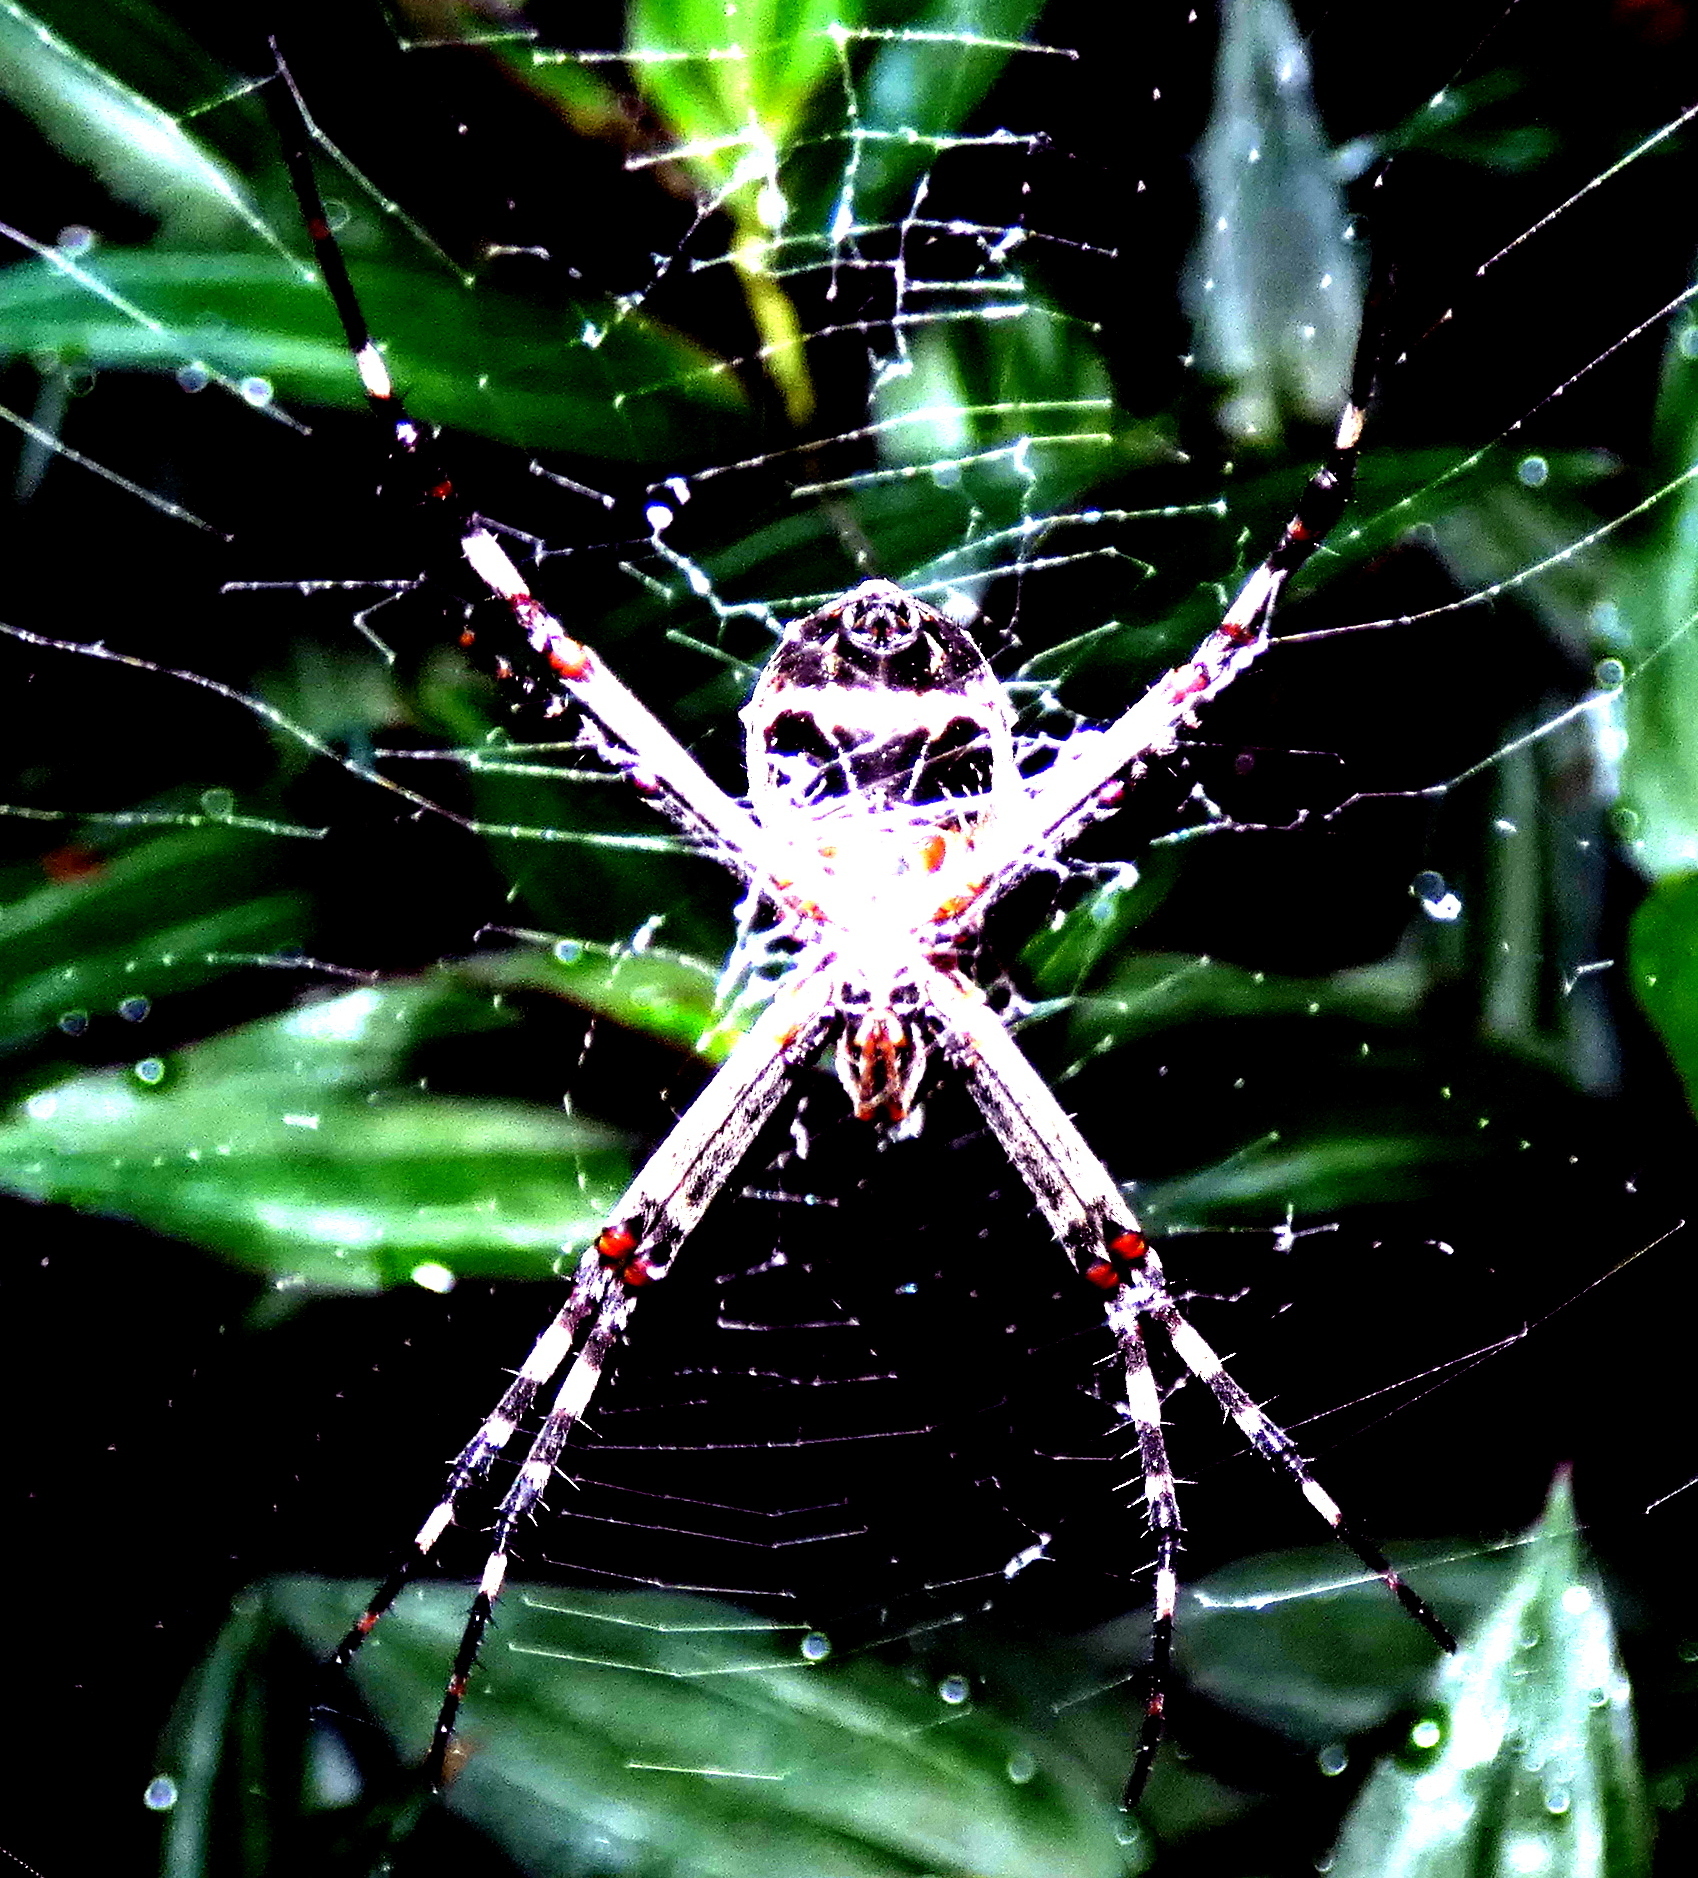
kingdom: Animalia
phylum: Arthropoda
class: Arachnida
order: Araneae
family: Araneidae
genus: Argiope
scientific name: Argiope argentata
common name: Orb weavers
